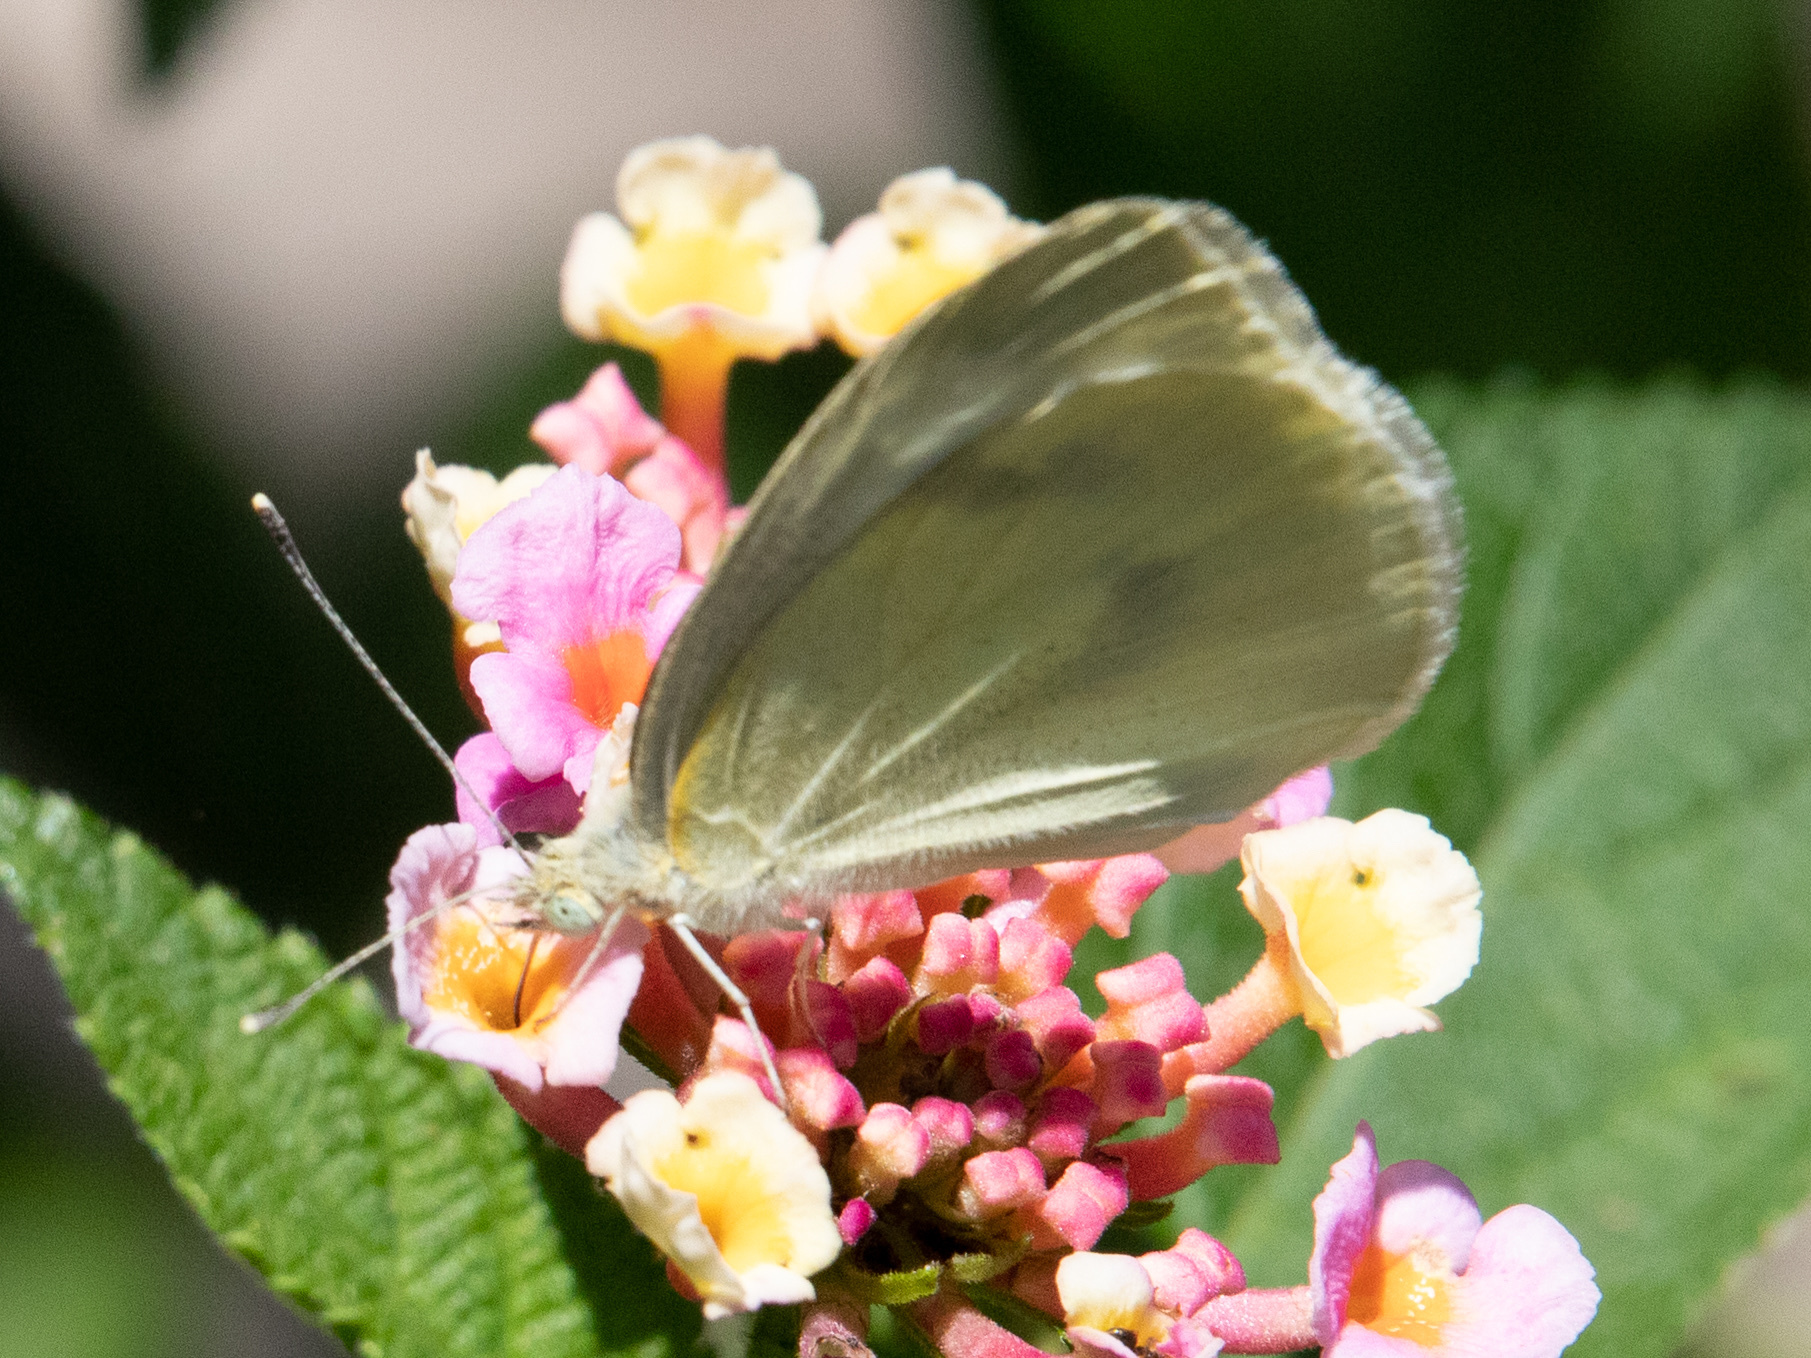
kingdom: Animalia
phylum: Arthropoda
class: Insecta
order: Lepidoptera
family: Pieridae
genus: Pieris
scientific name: Pieris rapae
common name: Small white
